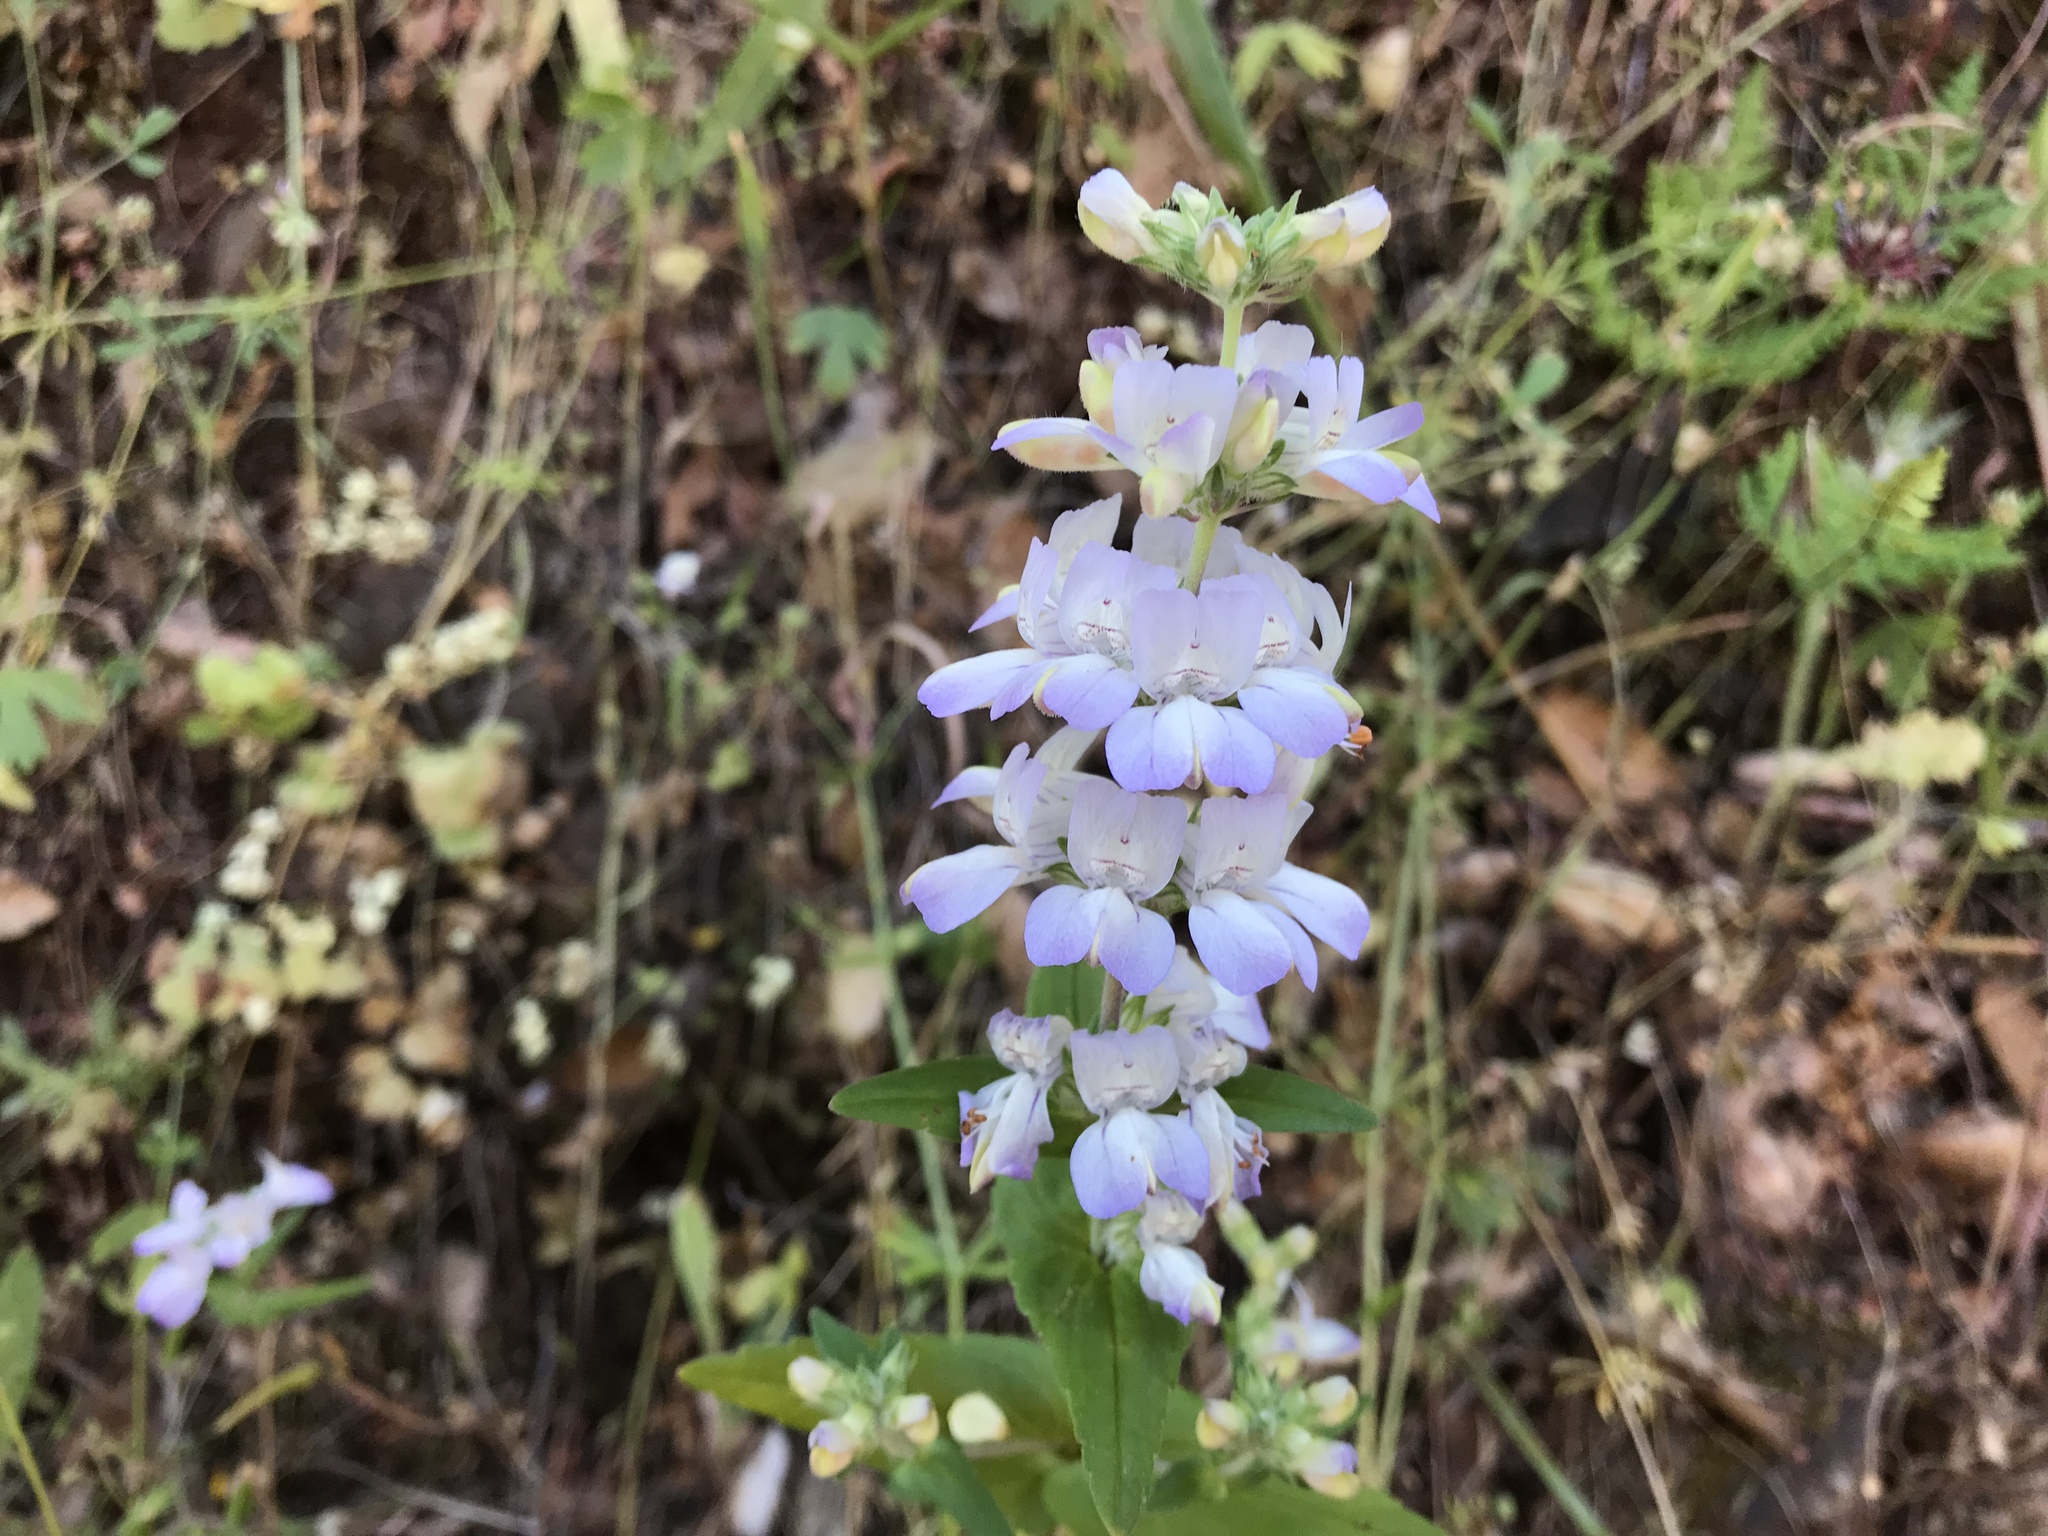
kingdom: Plantae
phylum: Tracheophyta
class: Magnoliopsida
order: Lamiales
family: Plantaginaceae
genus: Collinsia
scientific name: Collinsia heterophylla
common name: Chinese-houses
